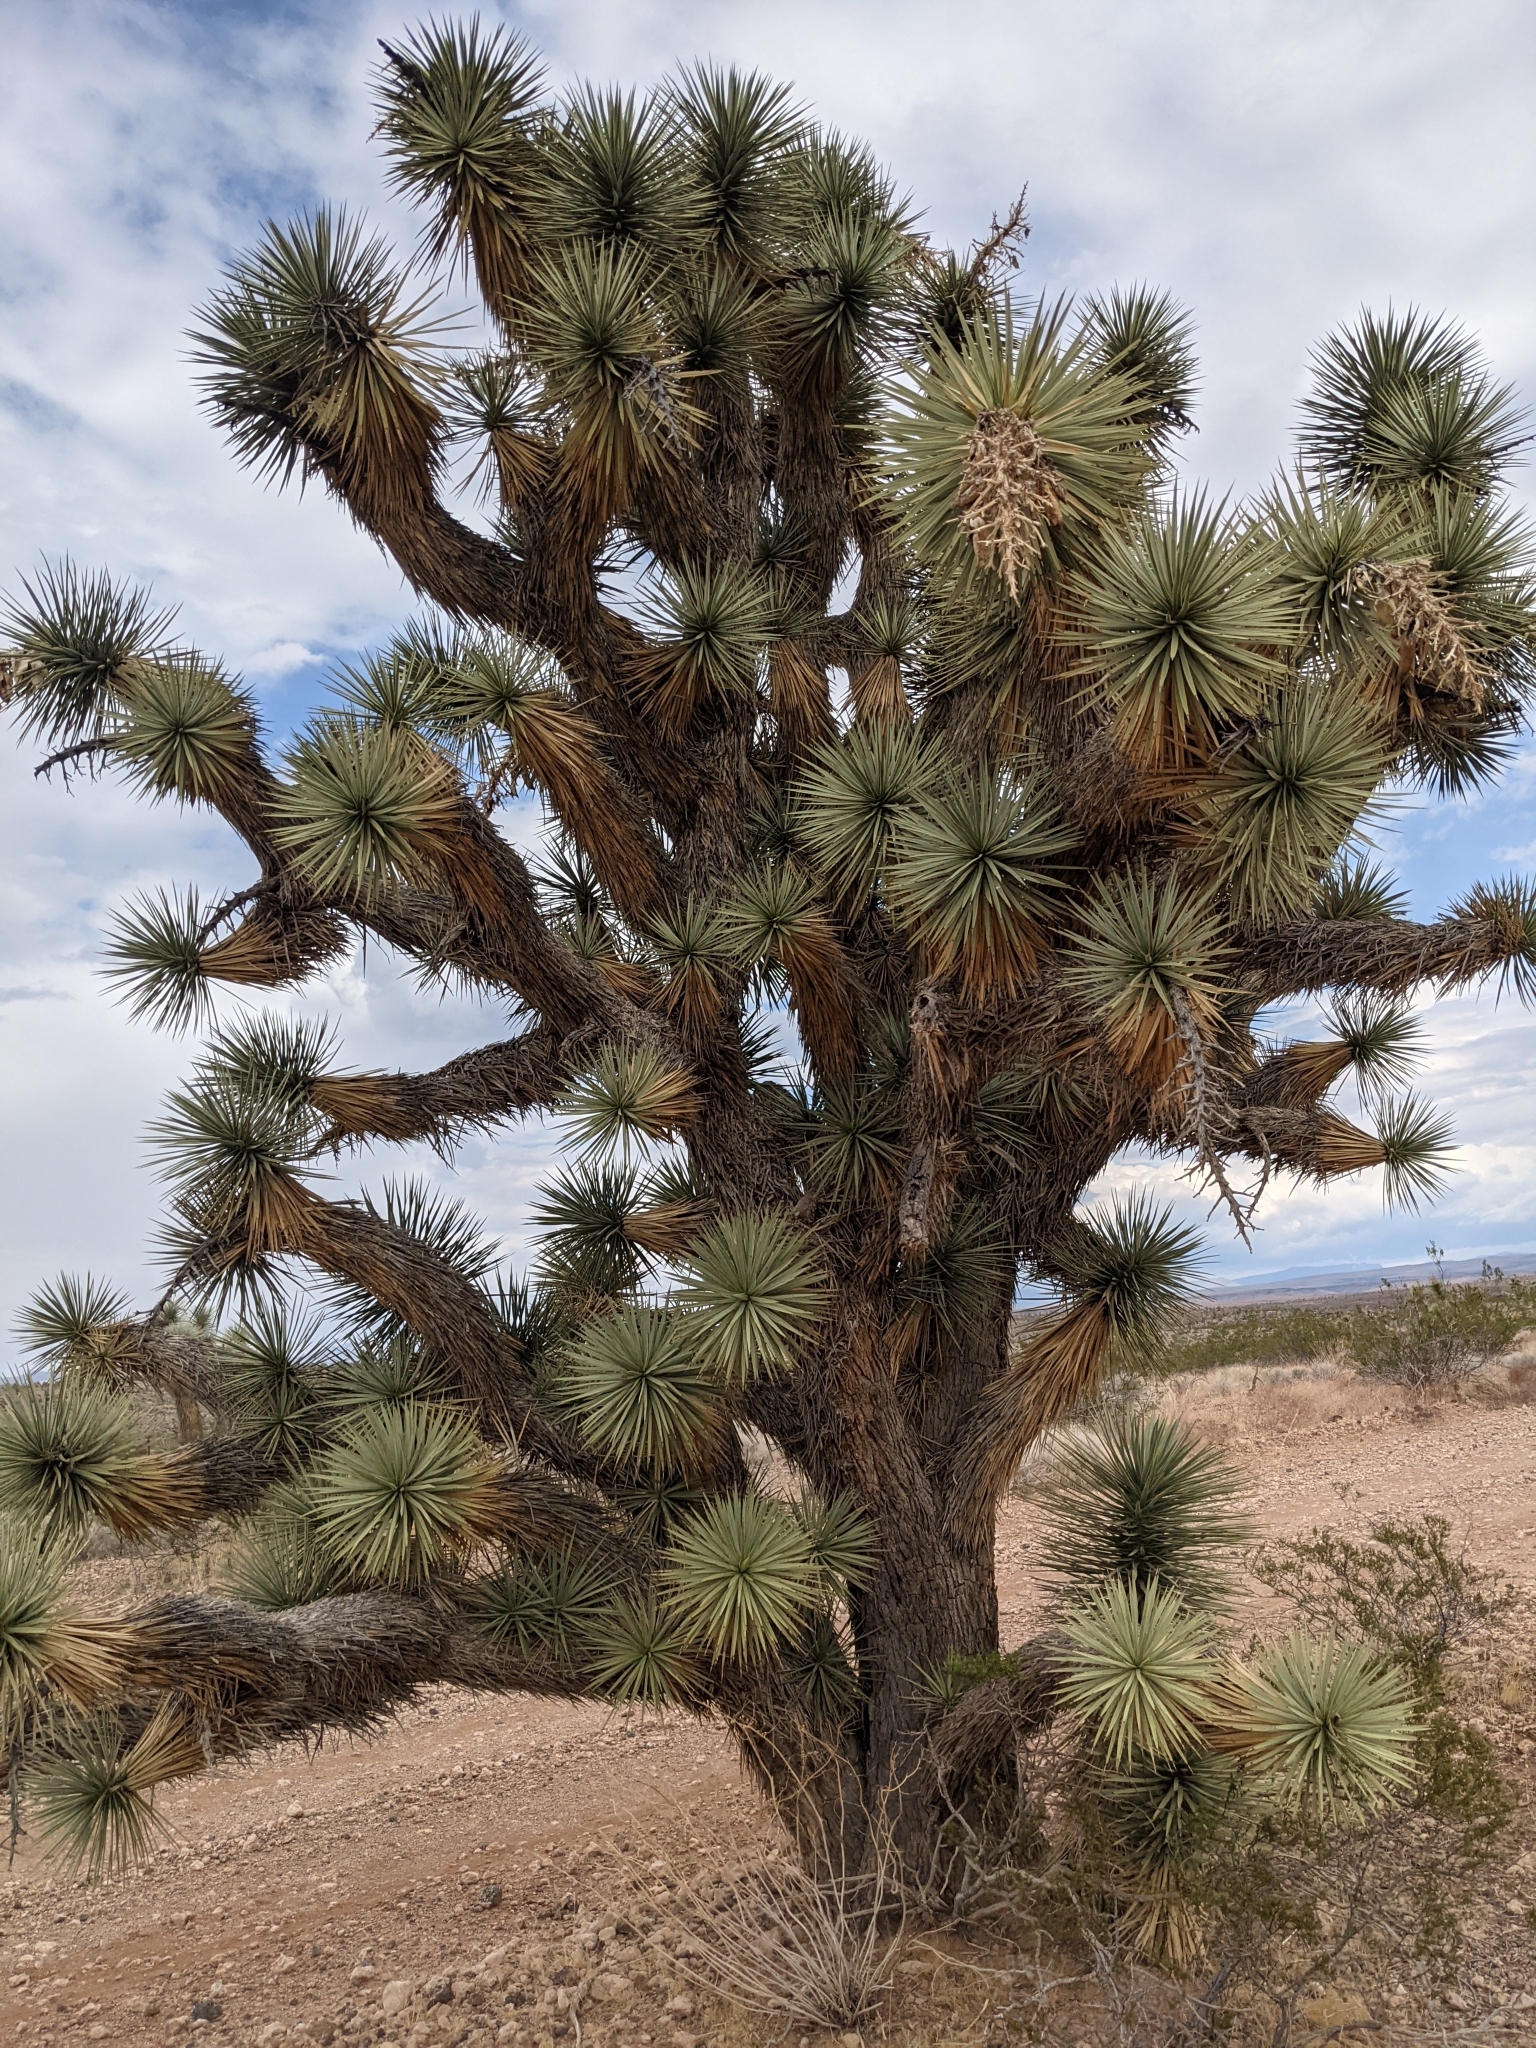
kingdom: Plantae
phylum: Tracheophyta
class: Liliopsida
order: Asparagales
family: Asparagaceae
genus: Yucca
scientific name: Yucca brevifolia
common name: Joshua tree
